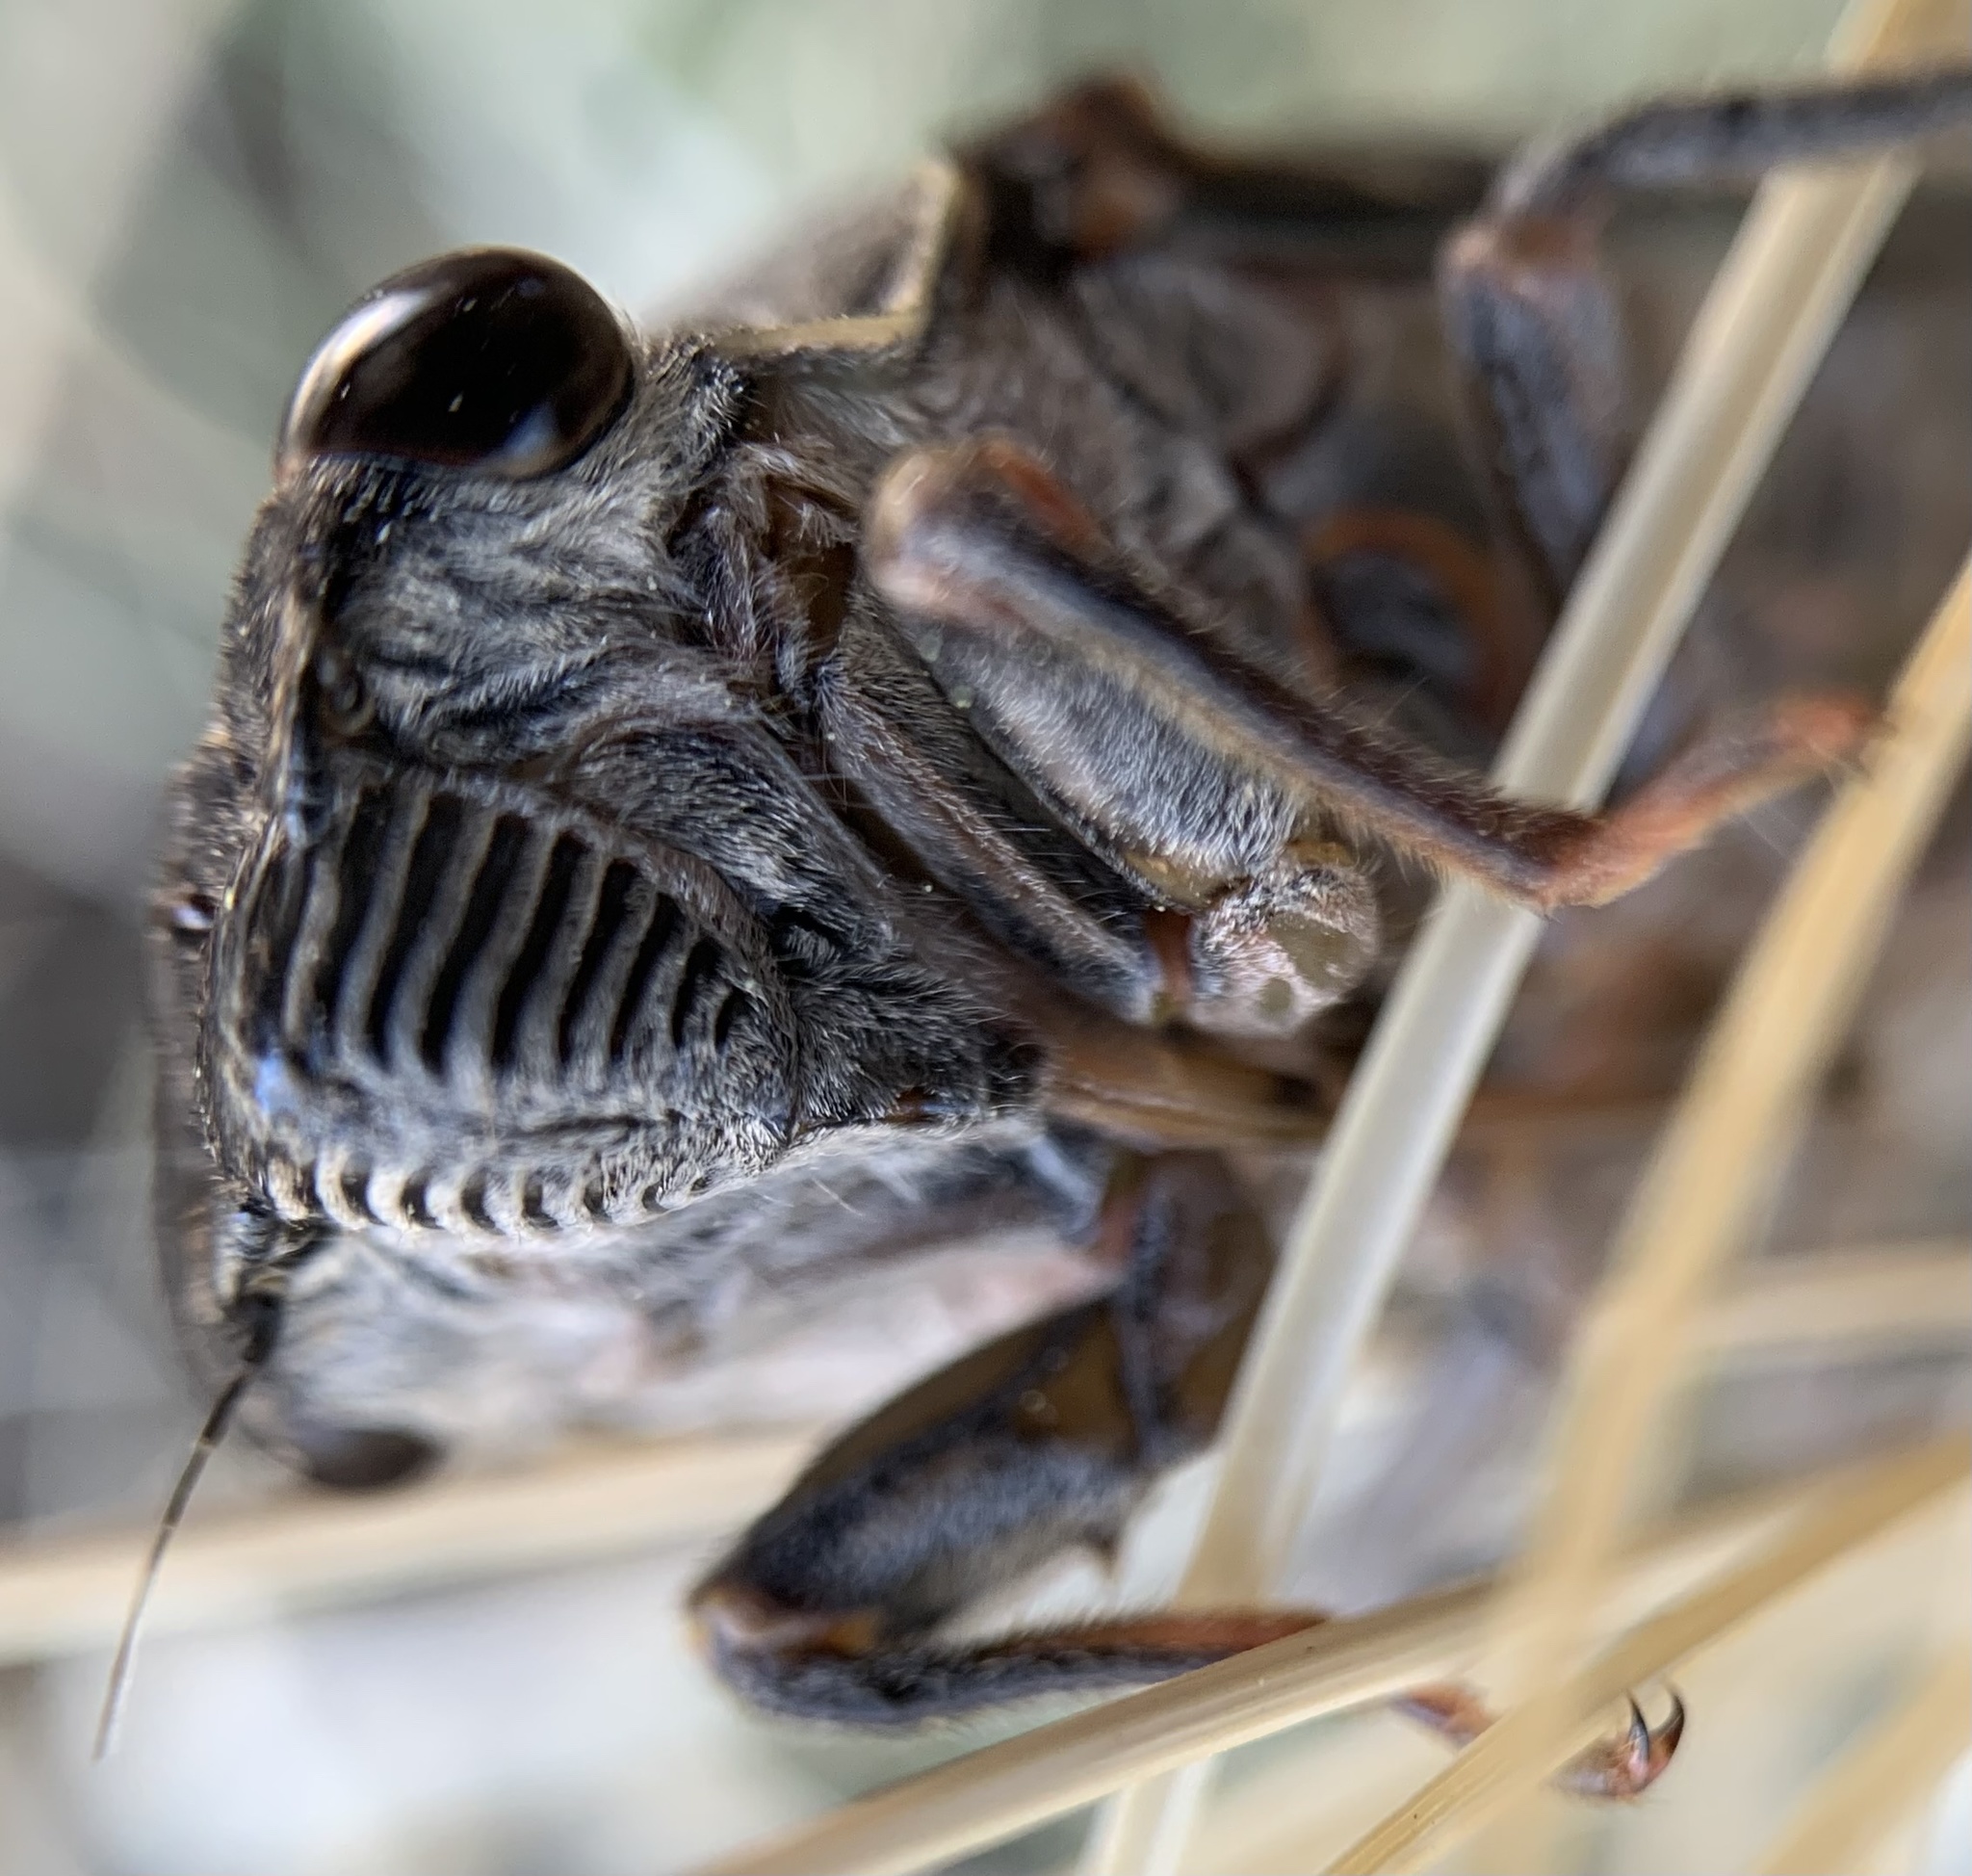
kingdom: Animalia
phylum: Arthropoda
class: Insecta
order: Hemiptera
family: Cicadidae
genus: Hadoa
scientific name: Hadoa duryi
